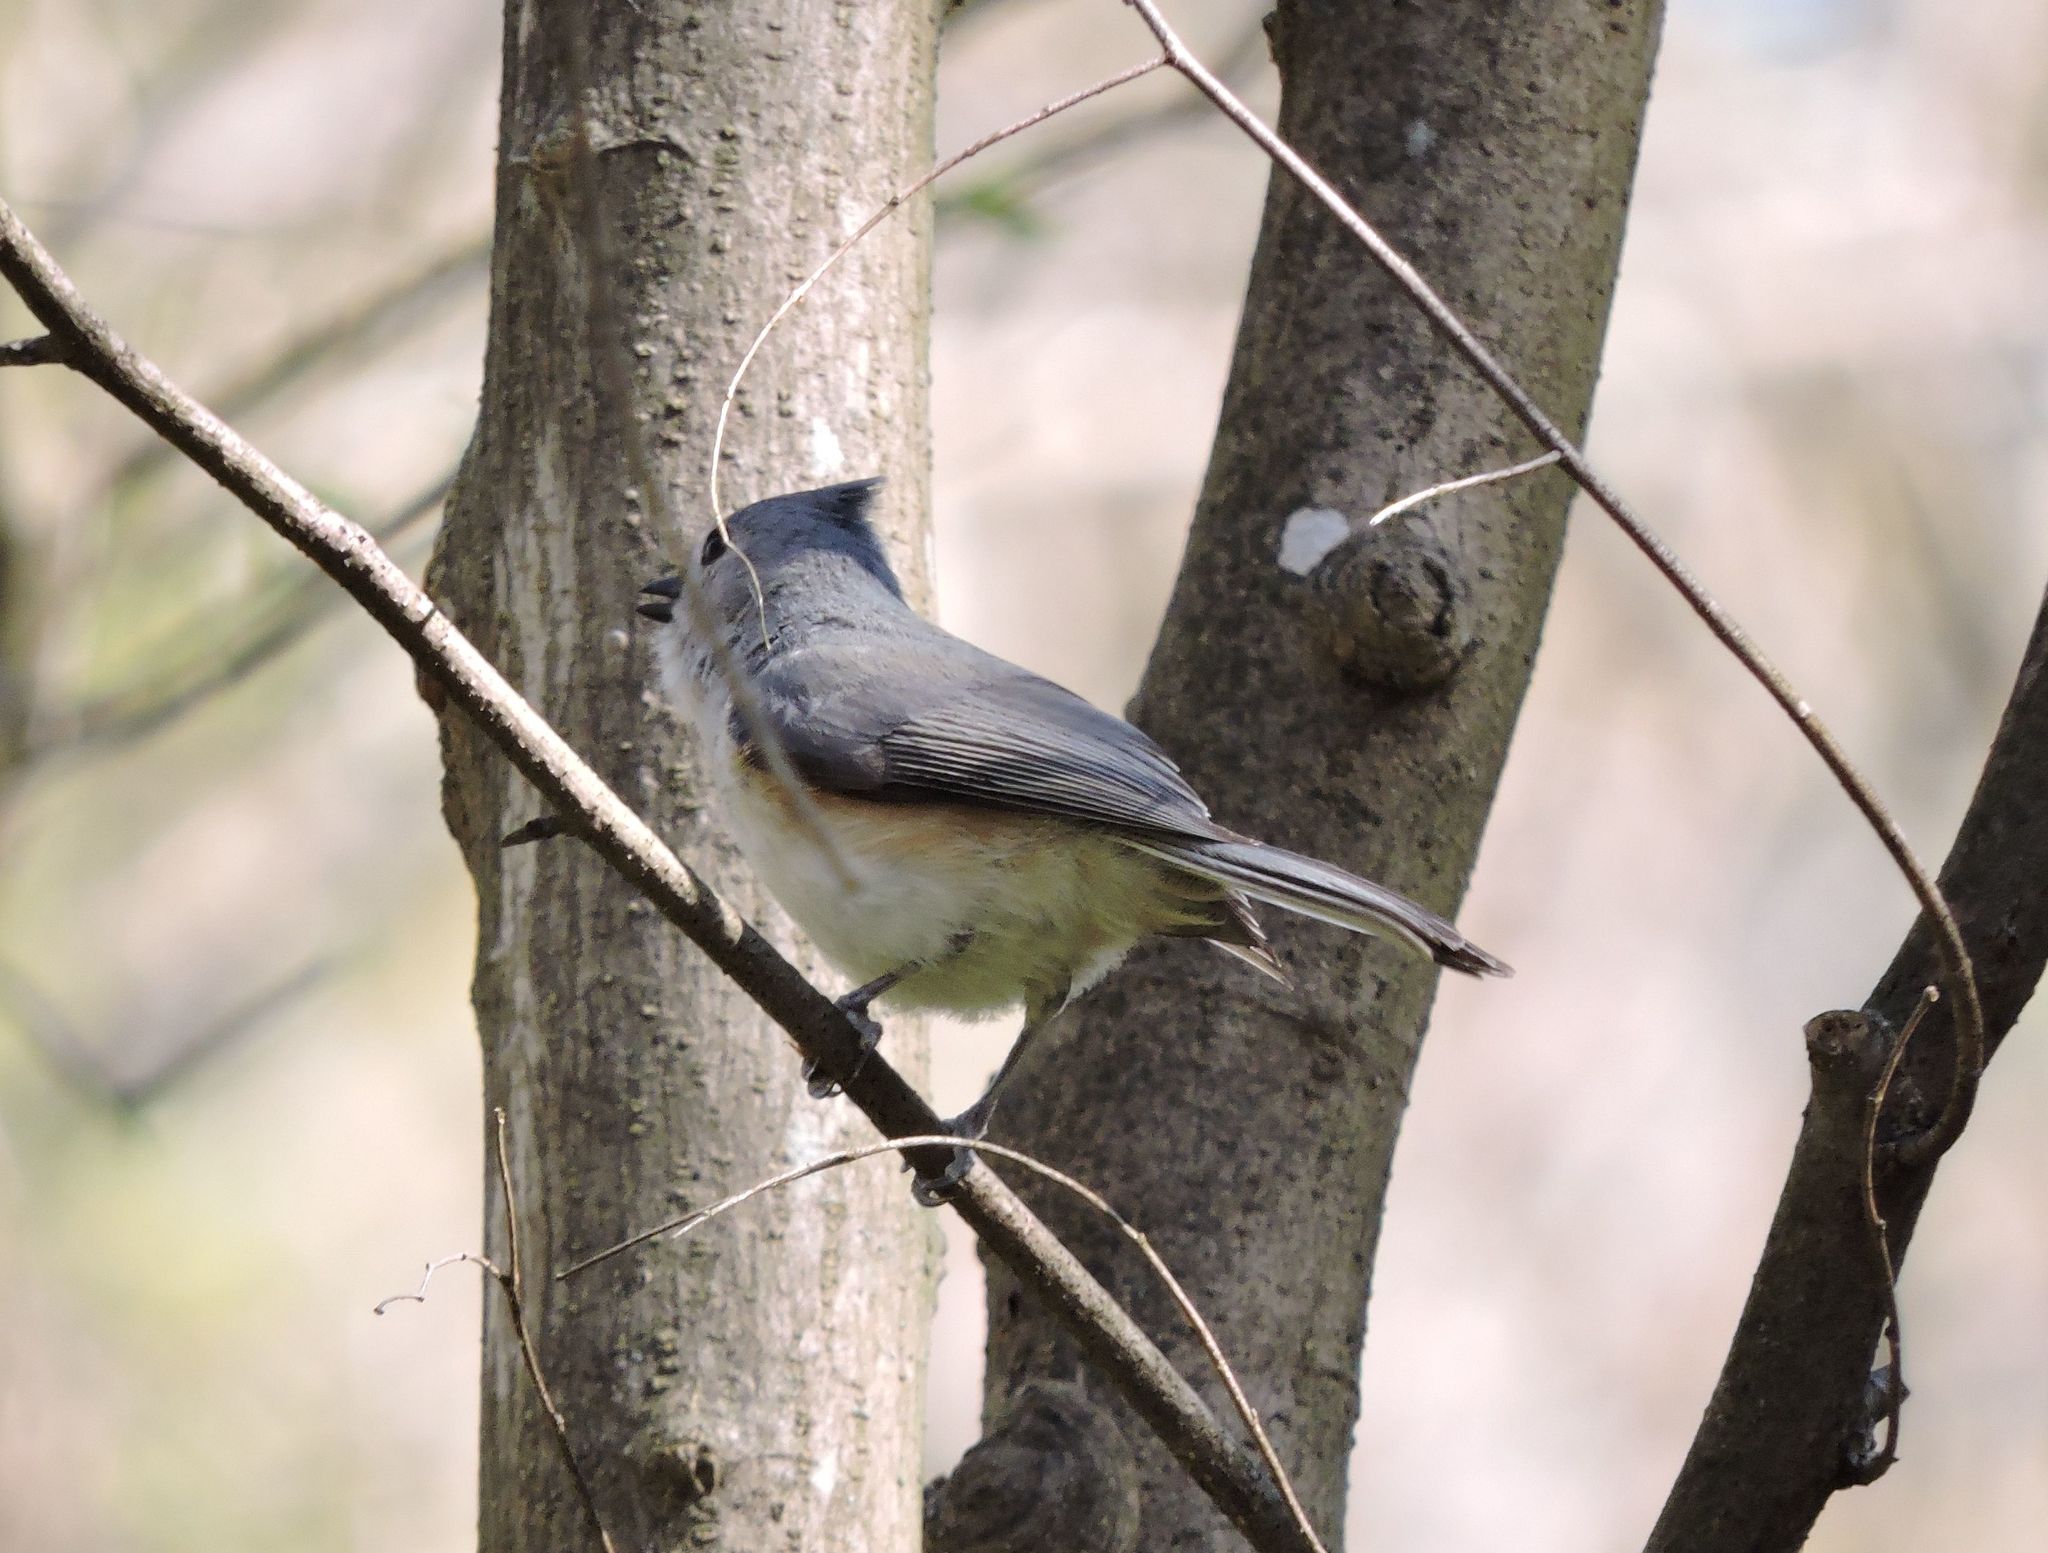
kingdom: Animalia
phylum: Chordata
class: Aves
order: Passeriformes
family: Paridae
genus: Baeolophus
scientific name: Baeolophus bicolor
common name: Tufted titmouse
